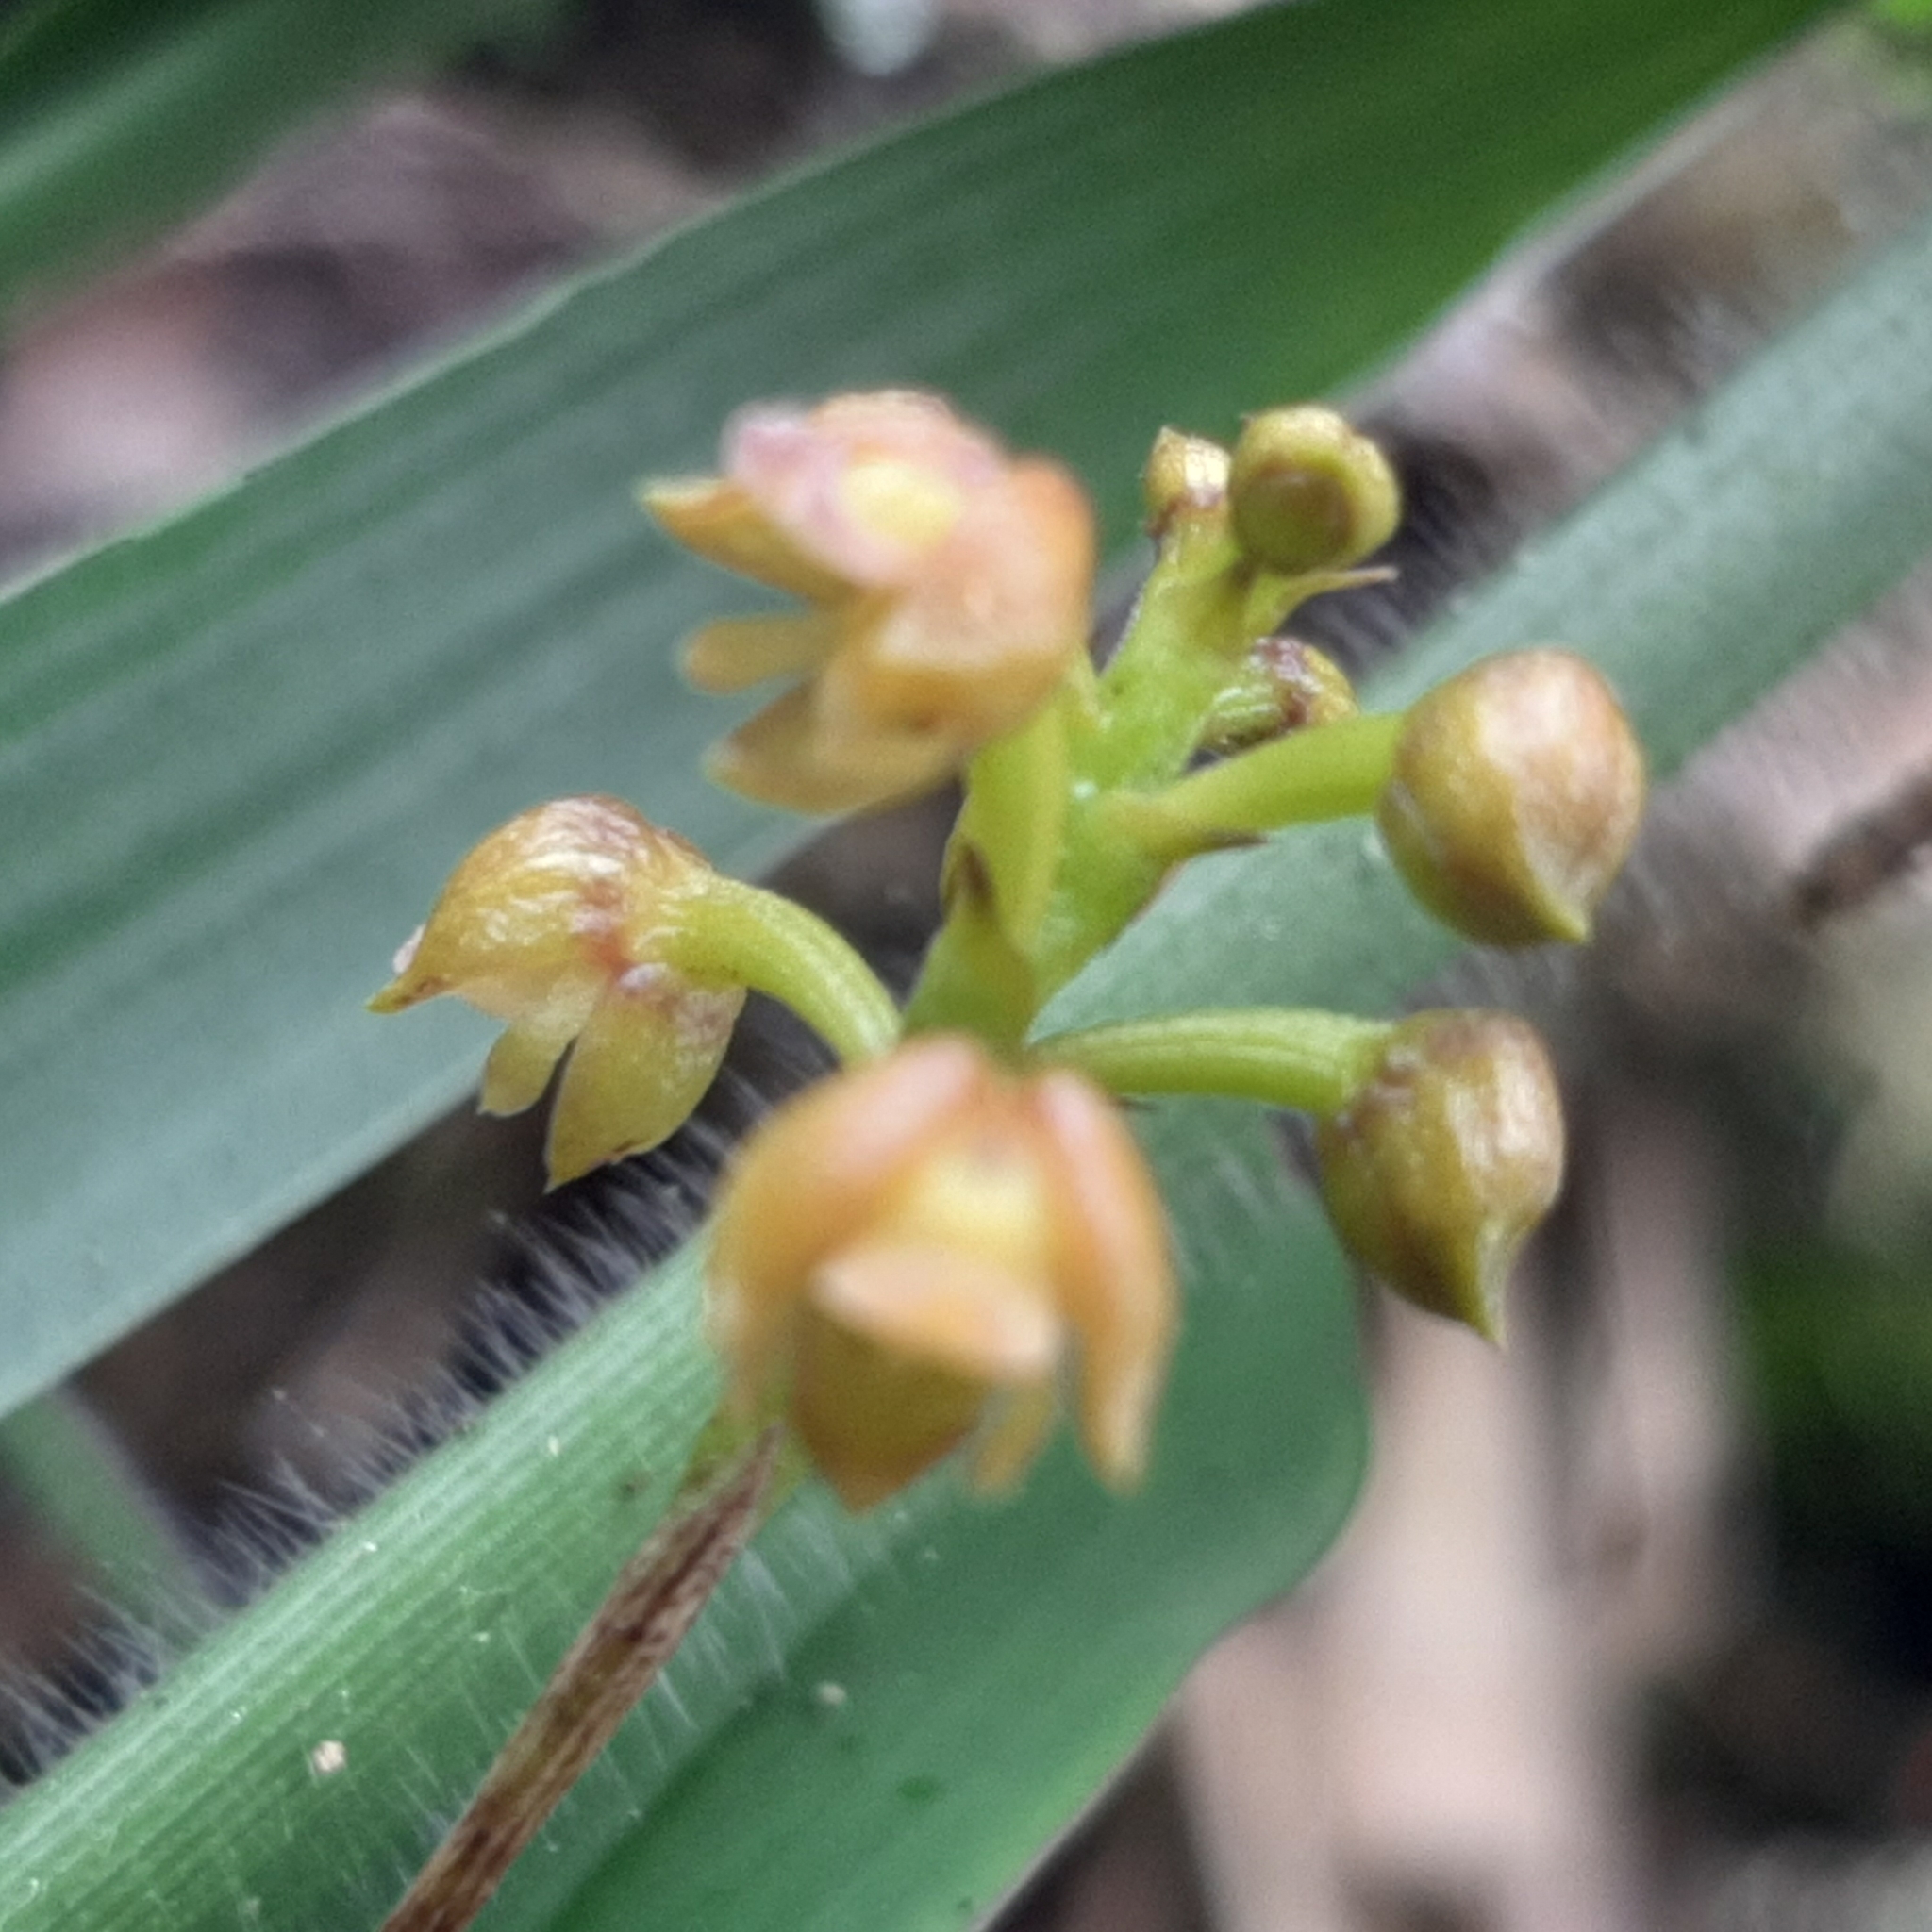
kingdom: Plantae
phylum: Tracheophyta
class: Liliopsida
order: Asparagales
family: Orchidaceae
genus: Polystachya
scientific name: Polystachya foliosa
